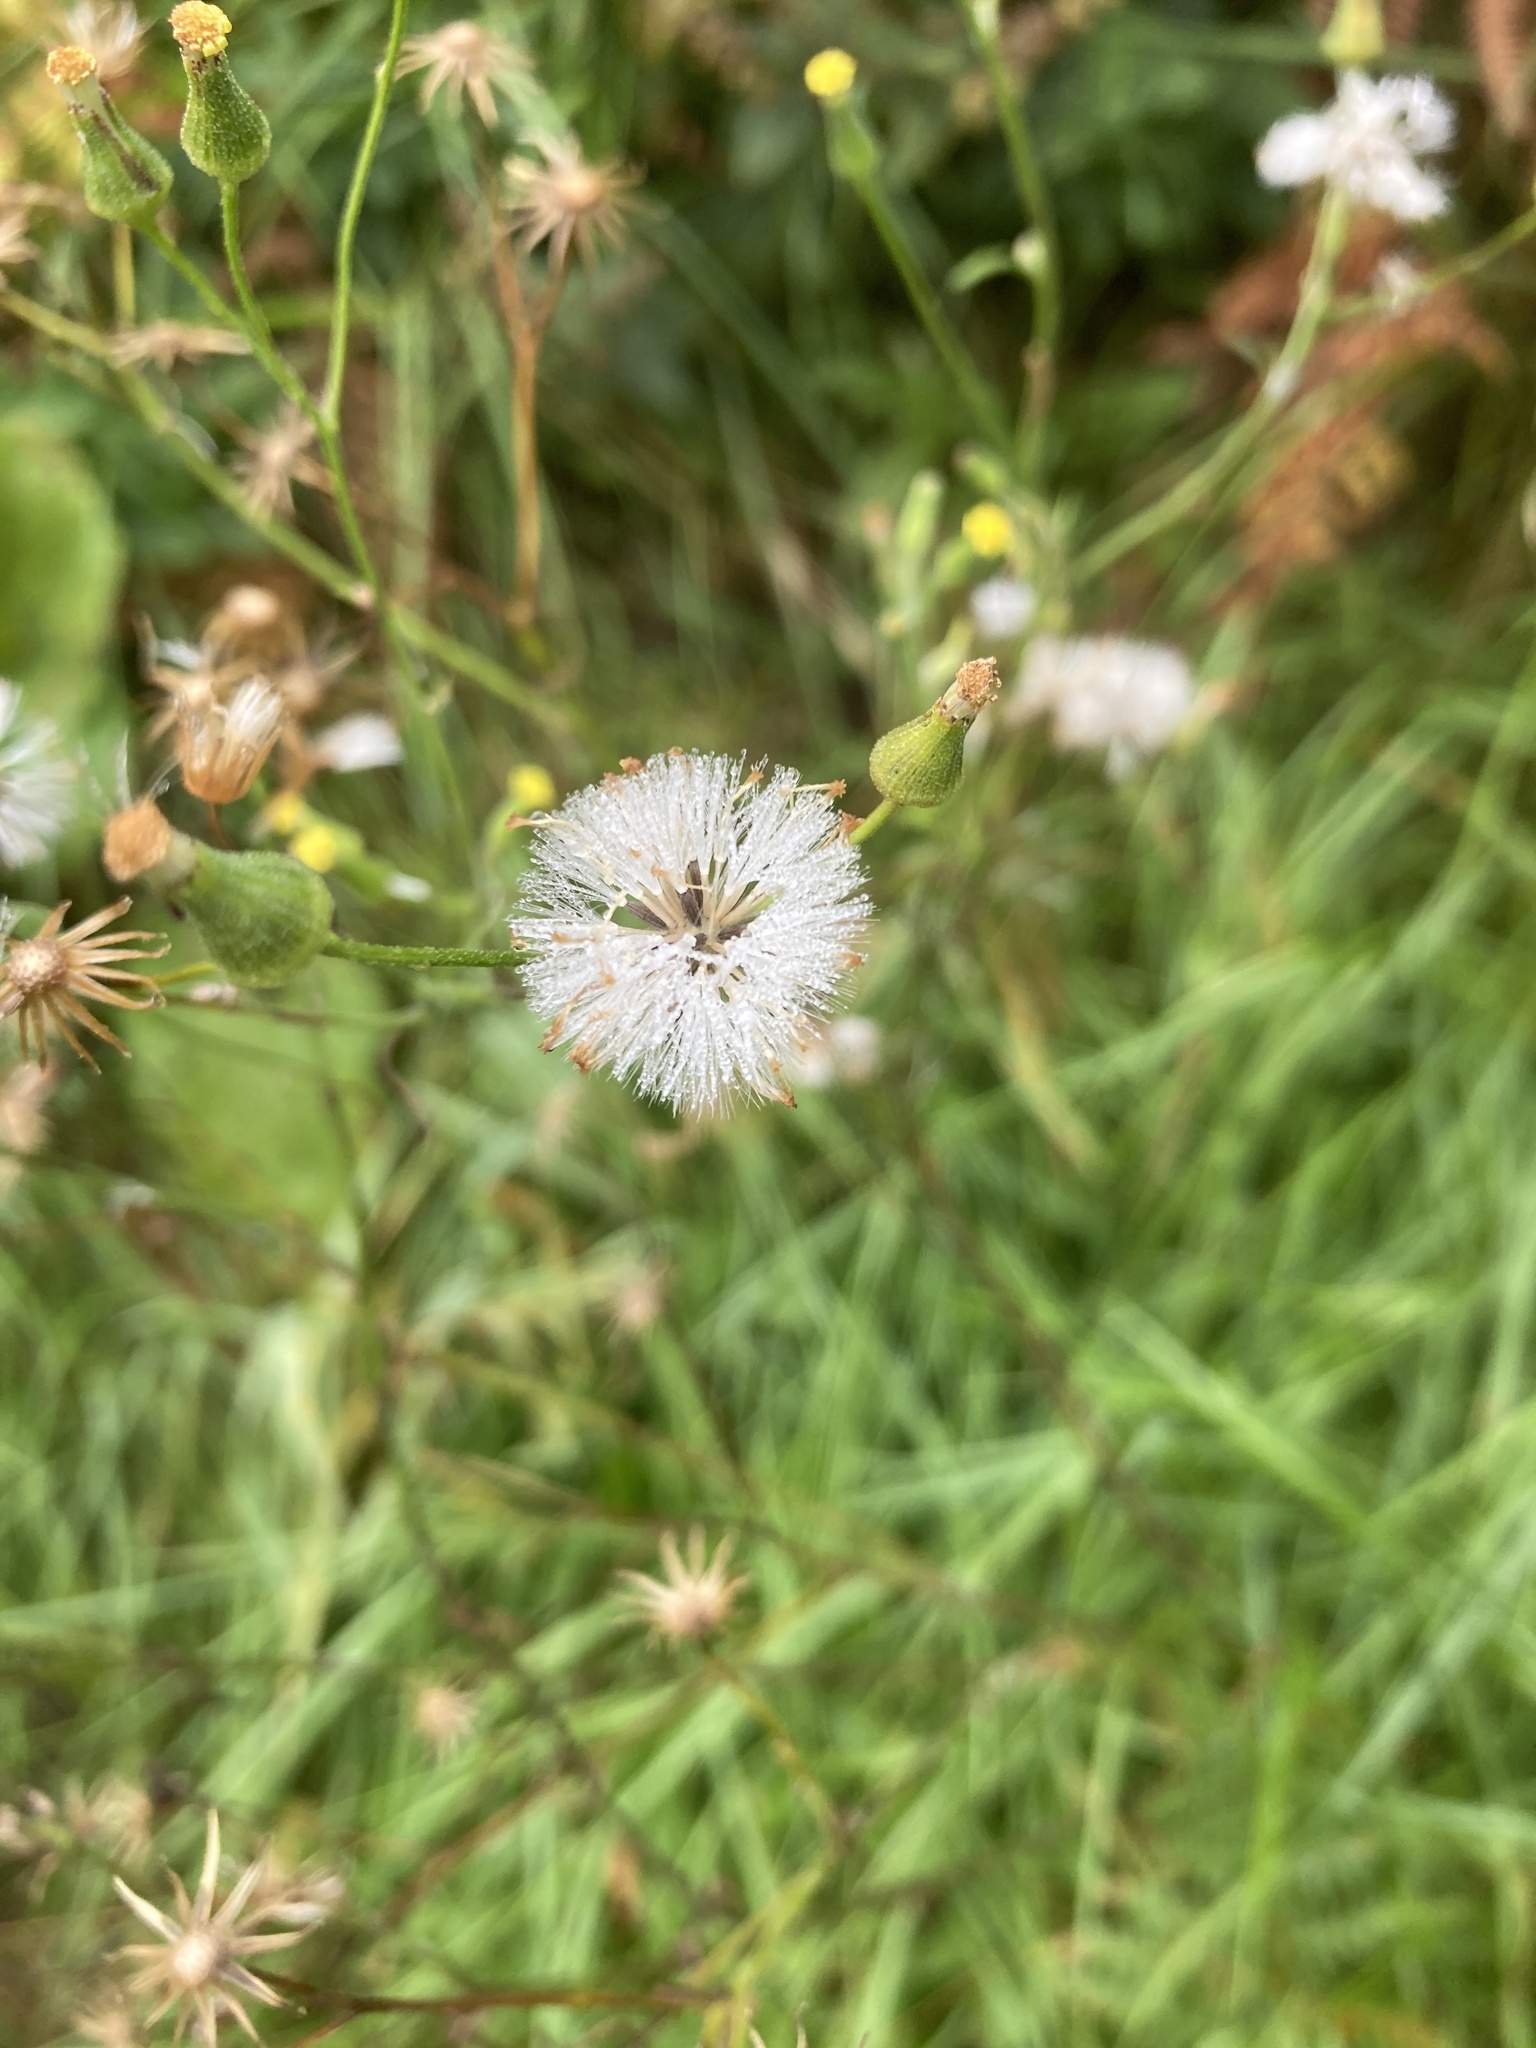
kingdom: Plantae
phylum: Tracheophyta
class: Magnoliopsida
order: Asterales
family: Asteraceae
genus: Senecio
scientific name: Senecio sylvaticus
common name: Woodland ragwort
